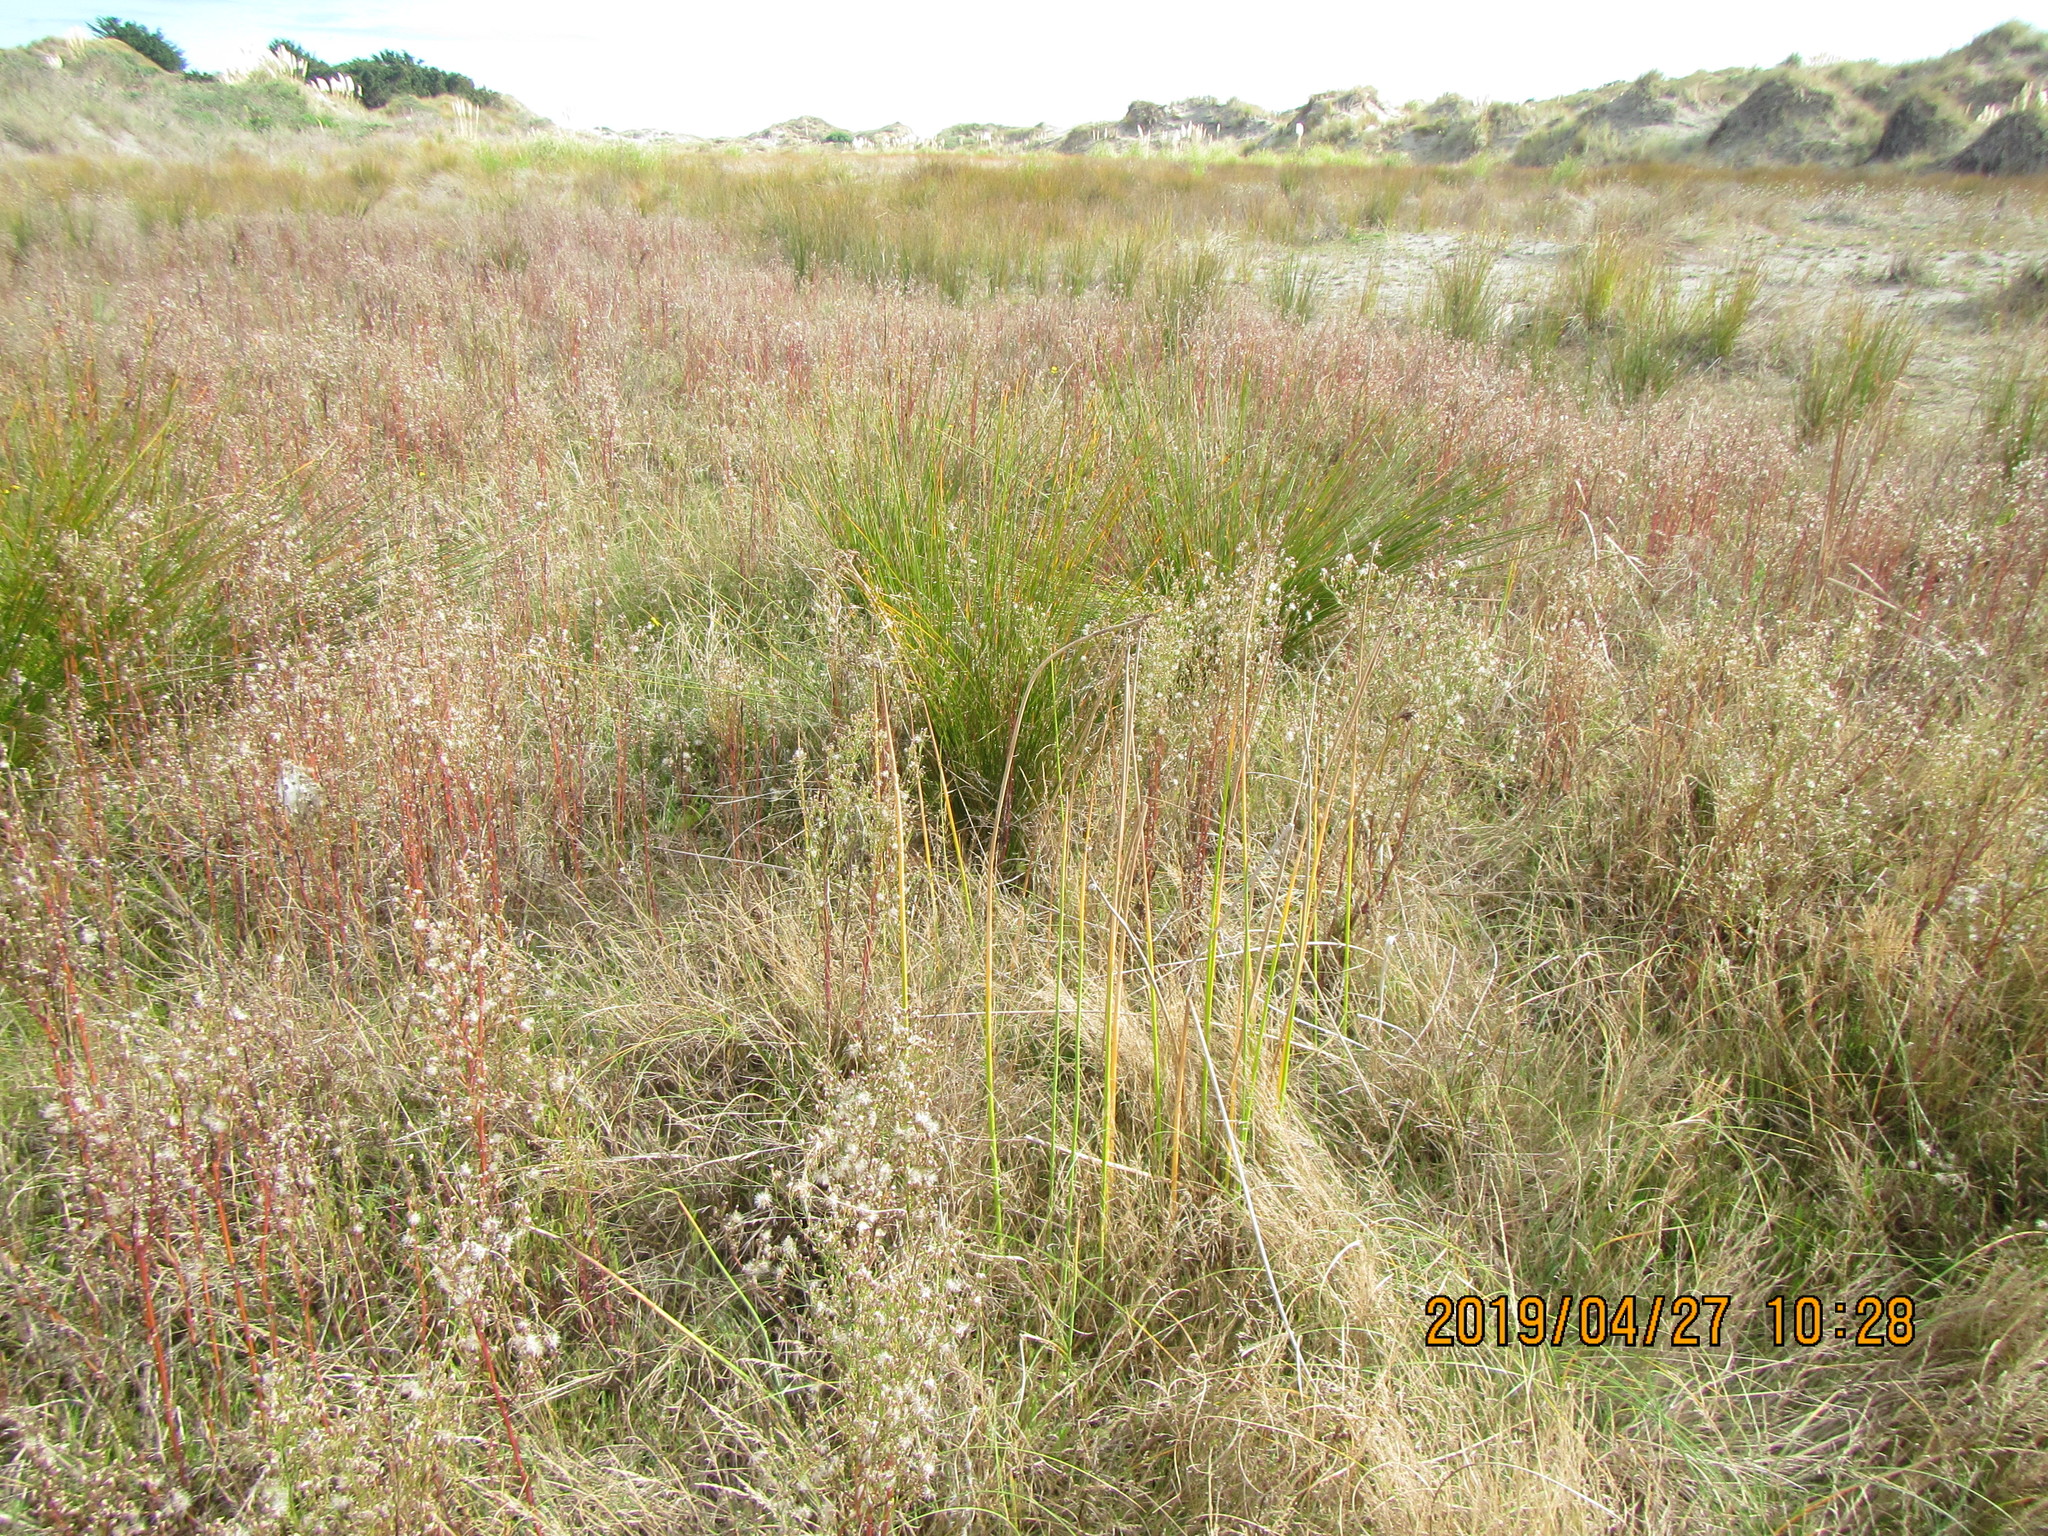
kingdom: Plantae
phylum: Tracheophyta
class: Liliopsida
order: Poales
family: Cyperaceae
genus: Schoenoplectus
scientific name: Schoenoplectus tabernaemontani
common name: Grey club-rush
